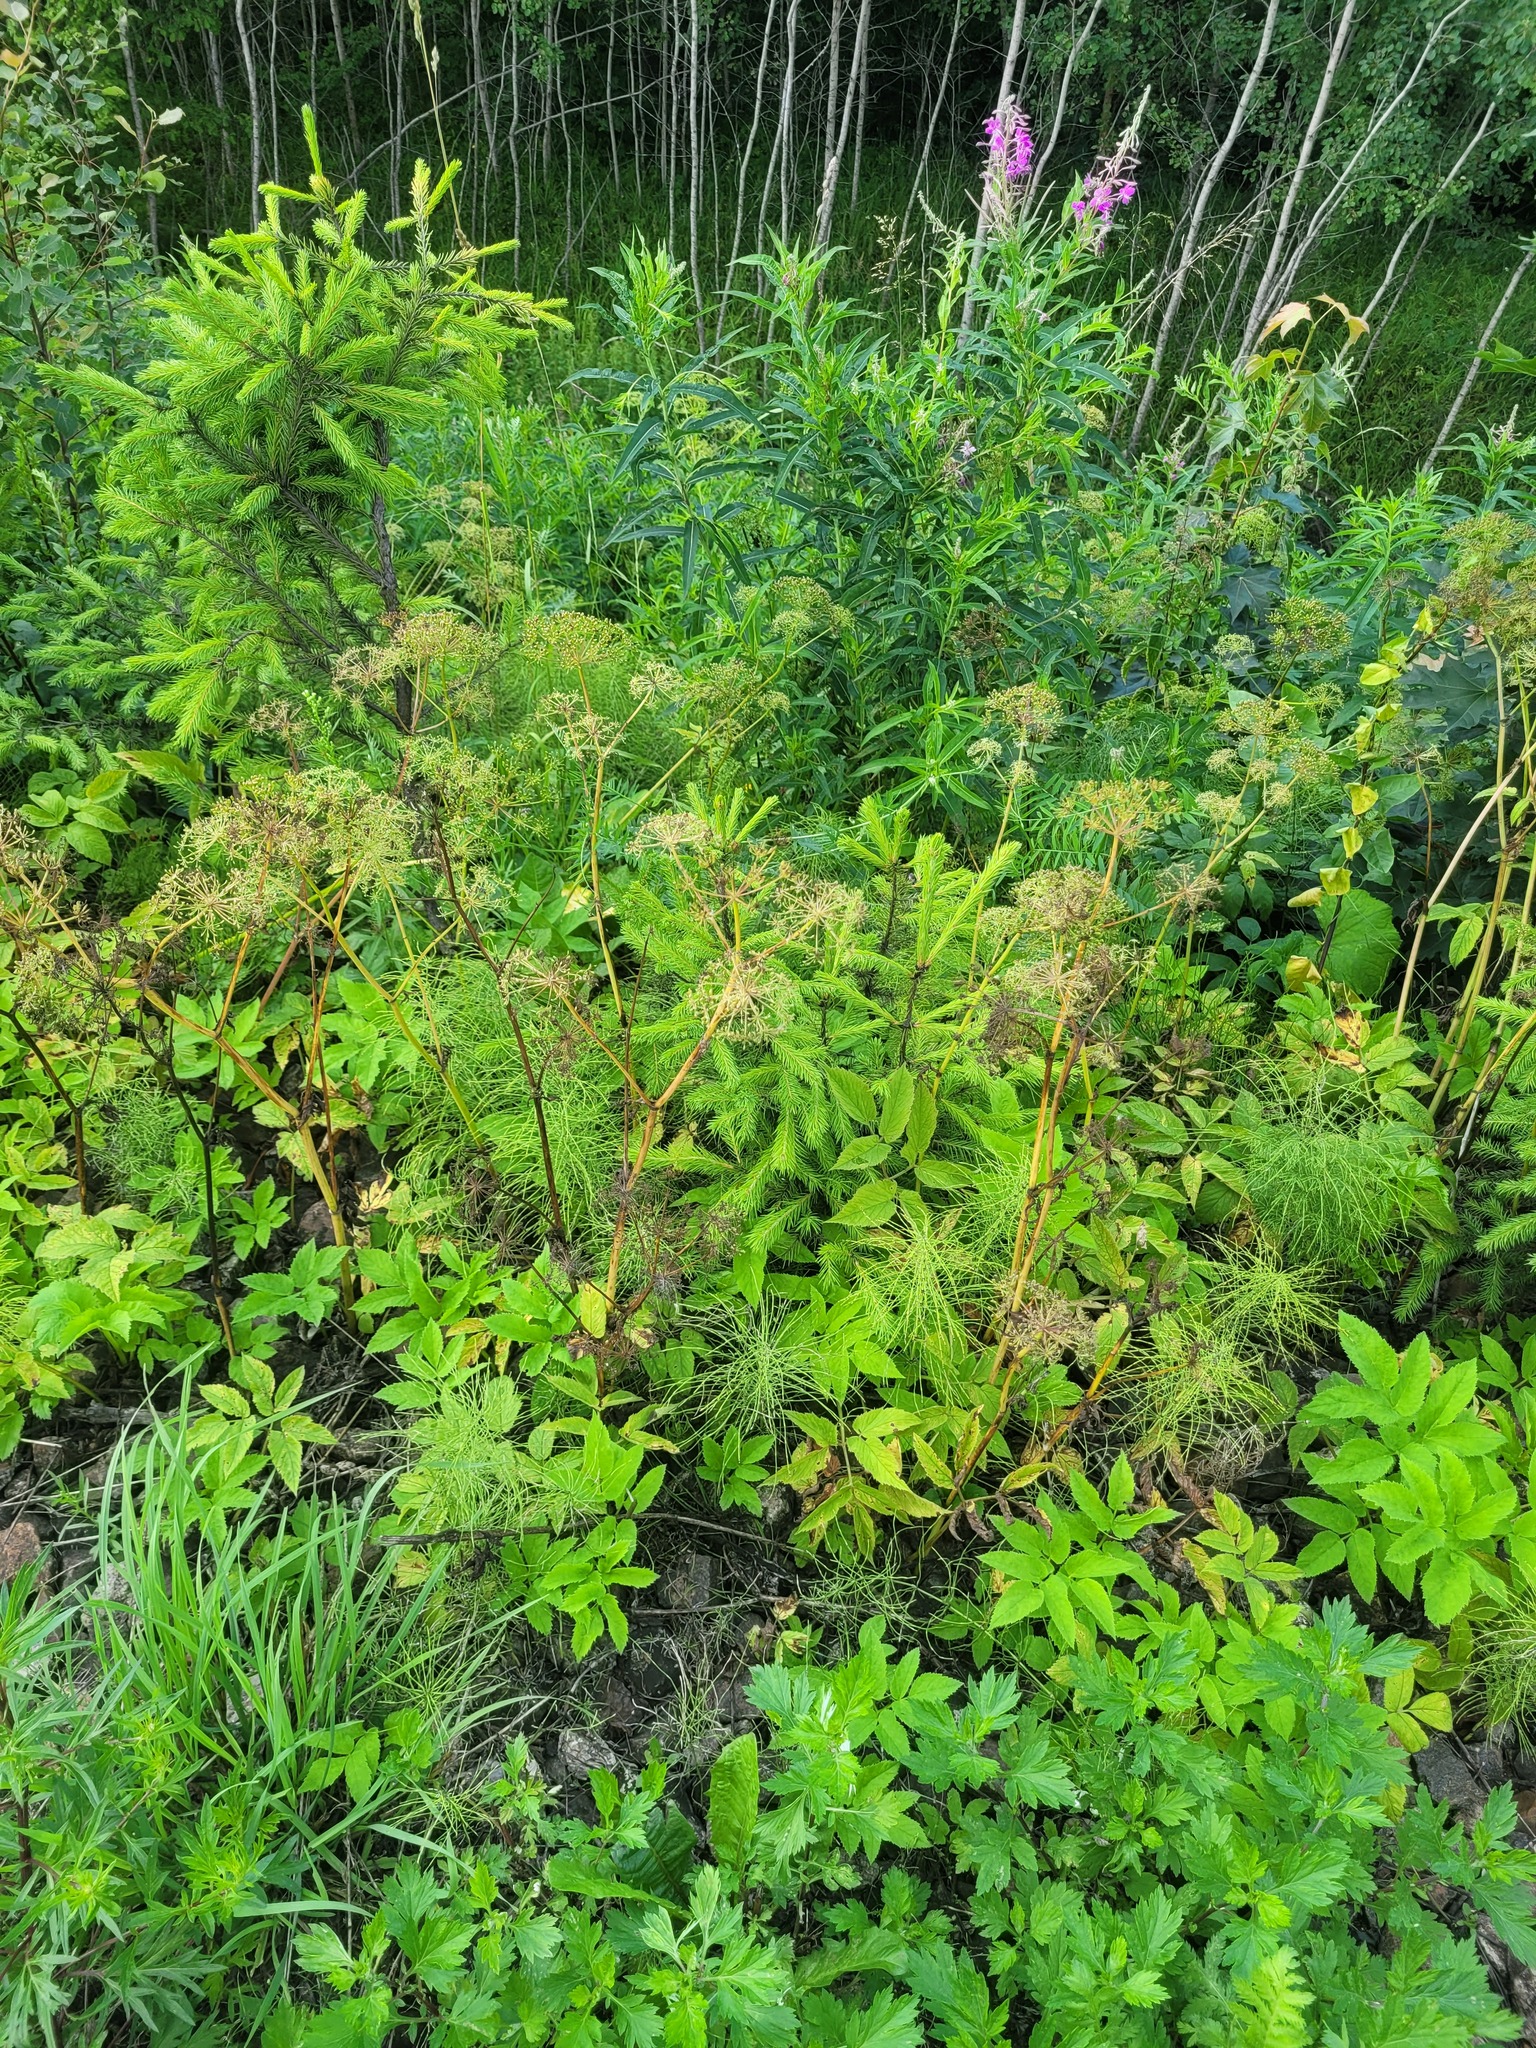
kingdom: Plantae
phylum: Tracheophyta
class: Magnoliopsida
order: Apiales
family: Apiaceae
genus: Aegopodium
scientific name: Aegopodium podagraria
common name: Ground-elder
